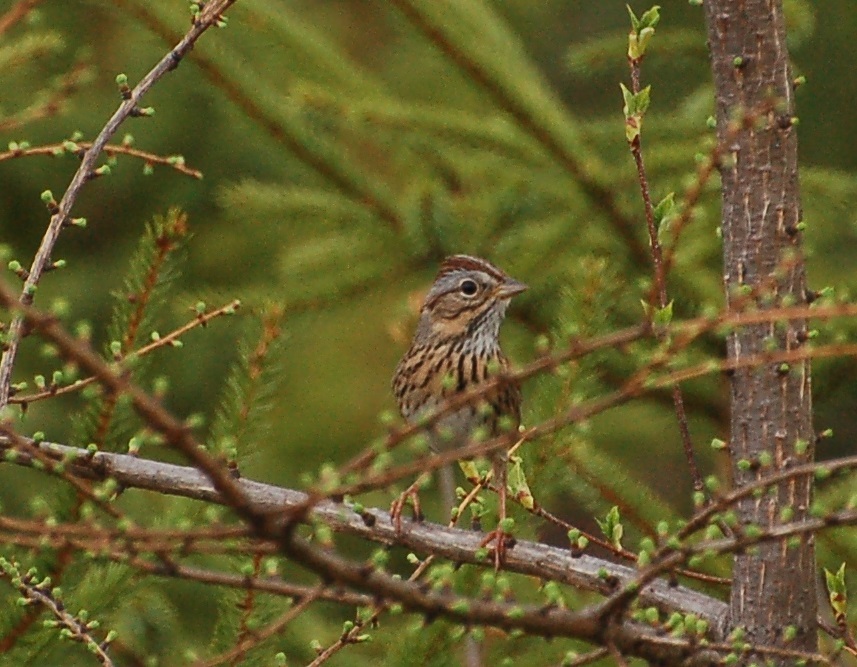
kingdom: Animalia
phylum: Chordata
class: Aves
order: Passeriformes
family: Passerellidae
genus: Melospiza
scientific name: Melospiza lincolnii
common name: Lincoln's sparrow
